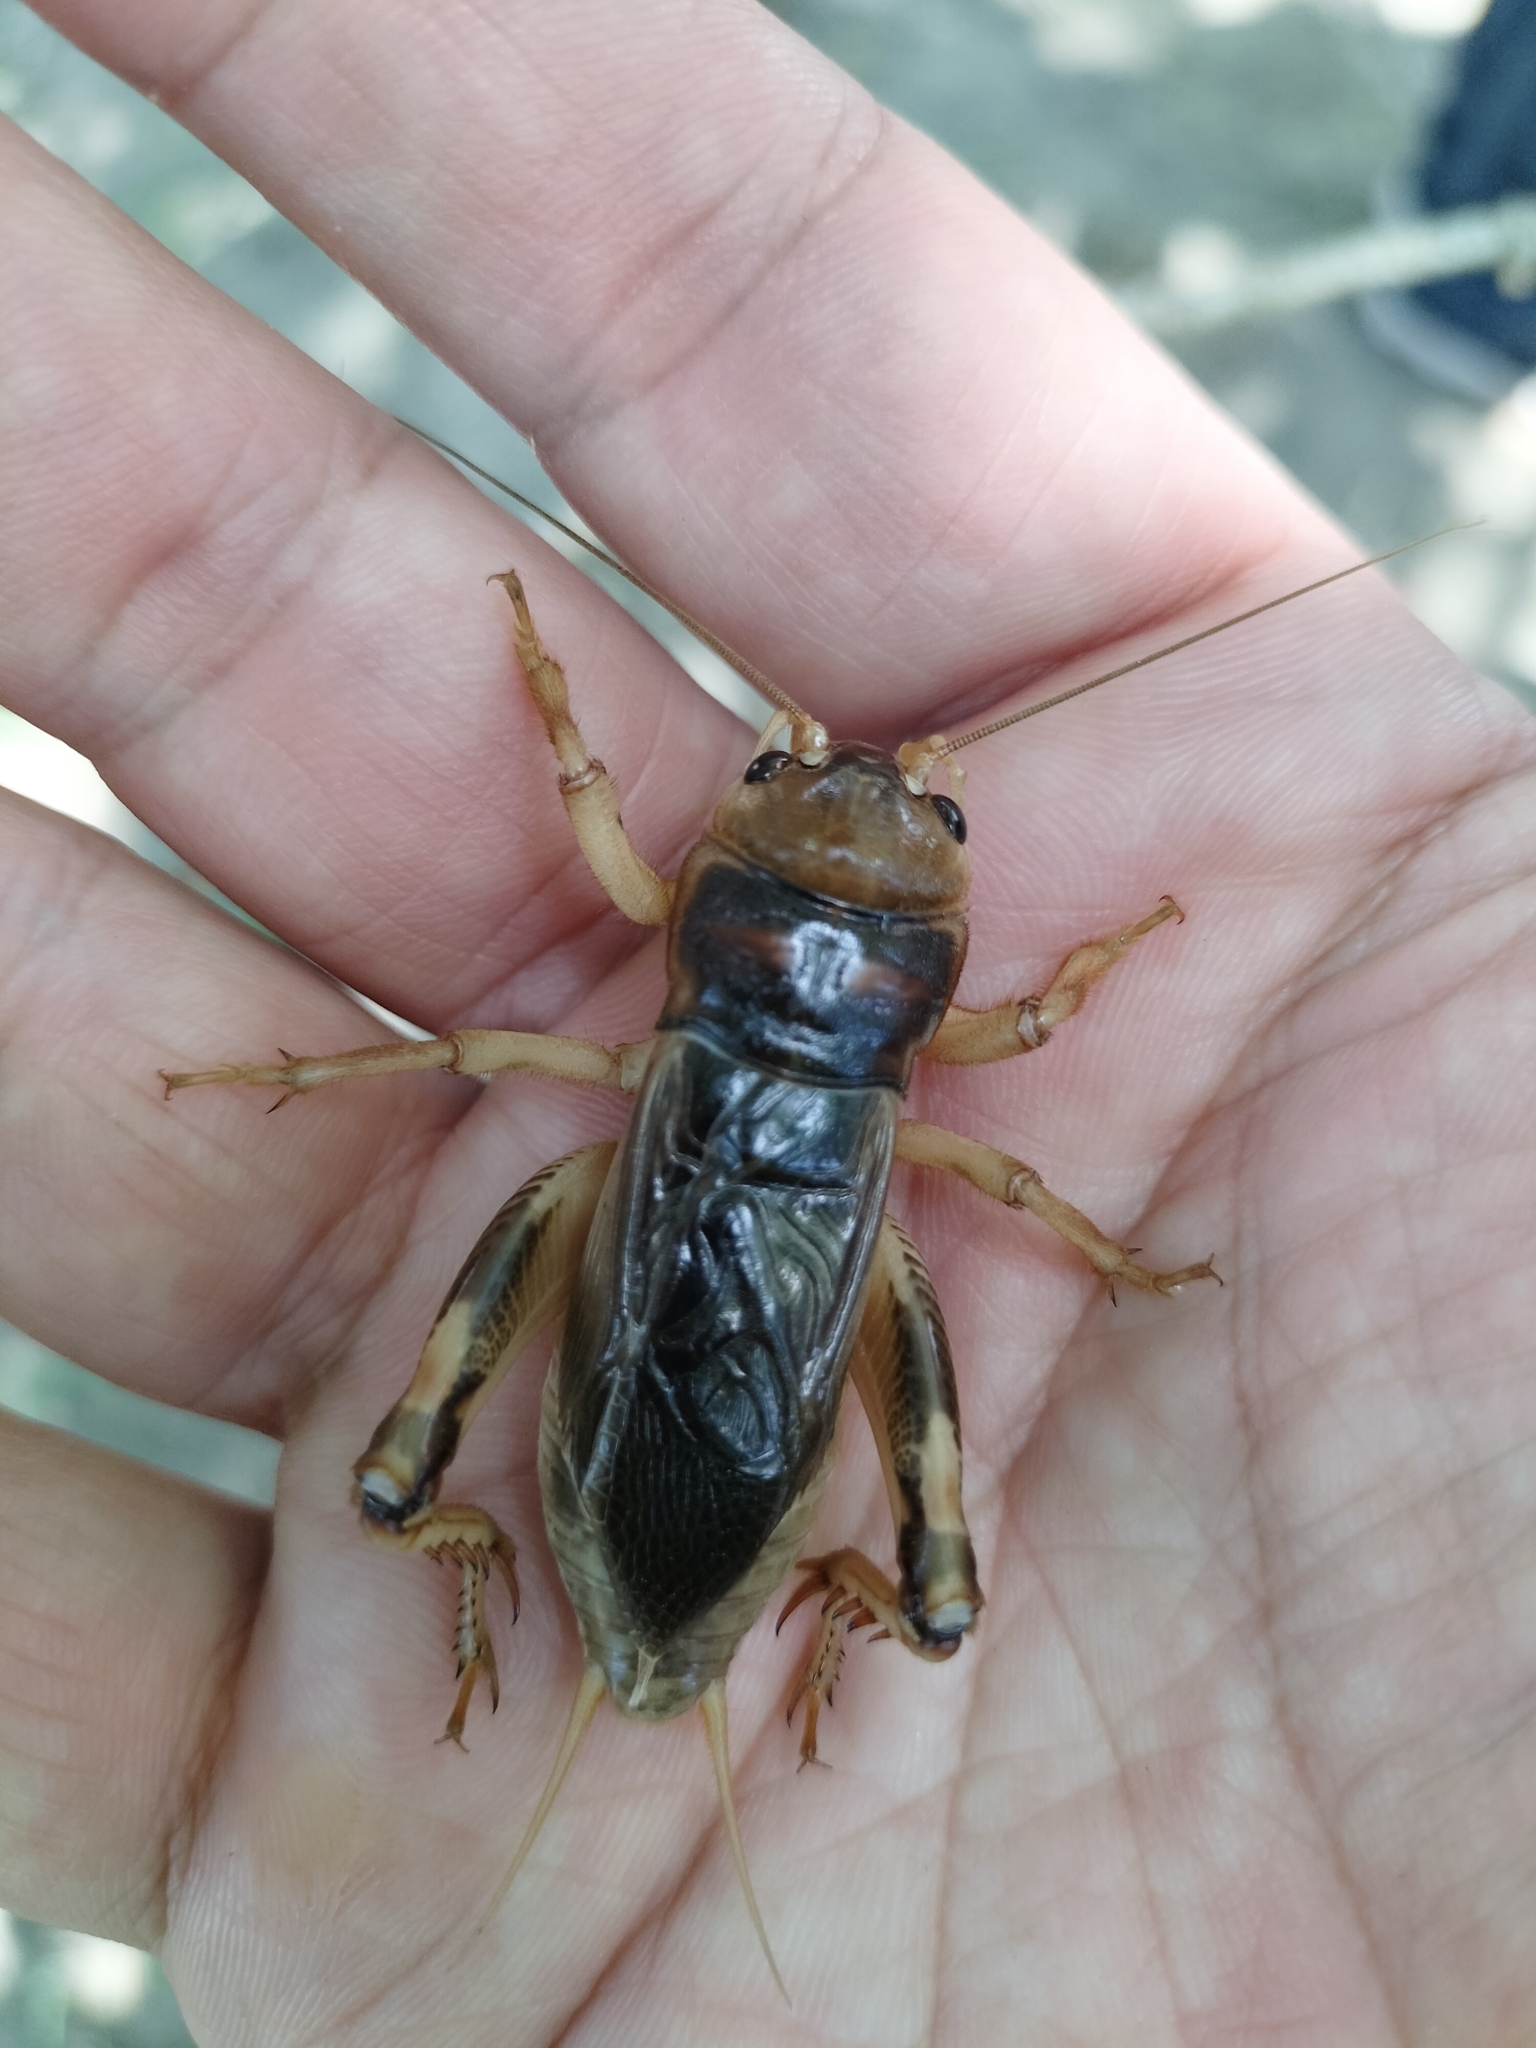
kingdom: Animalia
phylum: Arthropoda
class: Insecta
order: Orthoptera
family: Gryllidae
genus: Tarbinskiellus
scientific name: Tarbinskiellus portentosus
